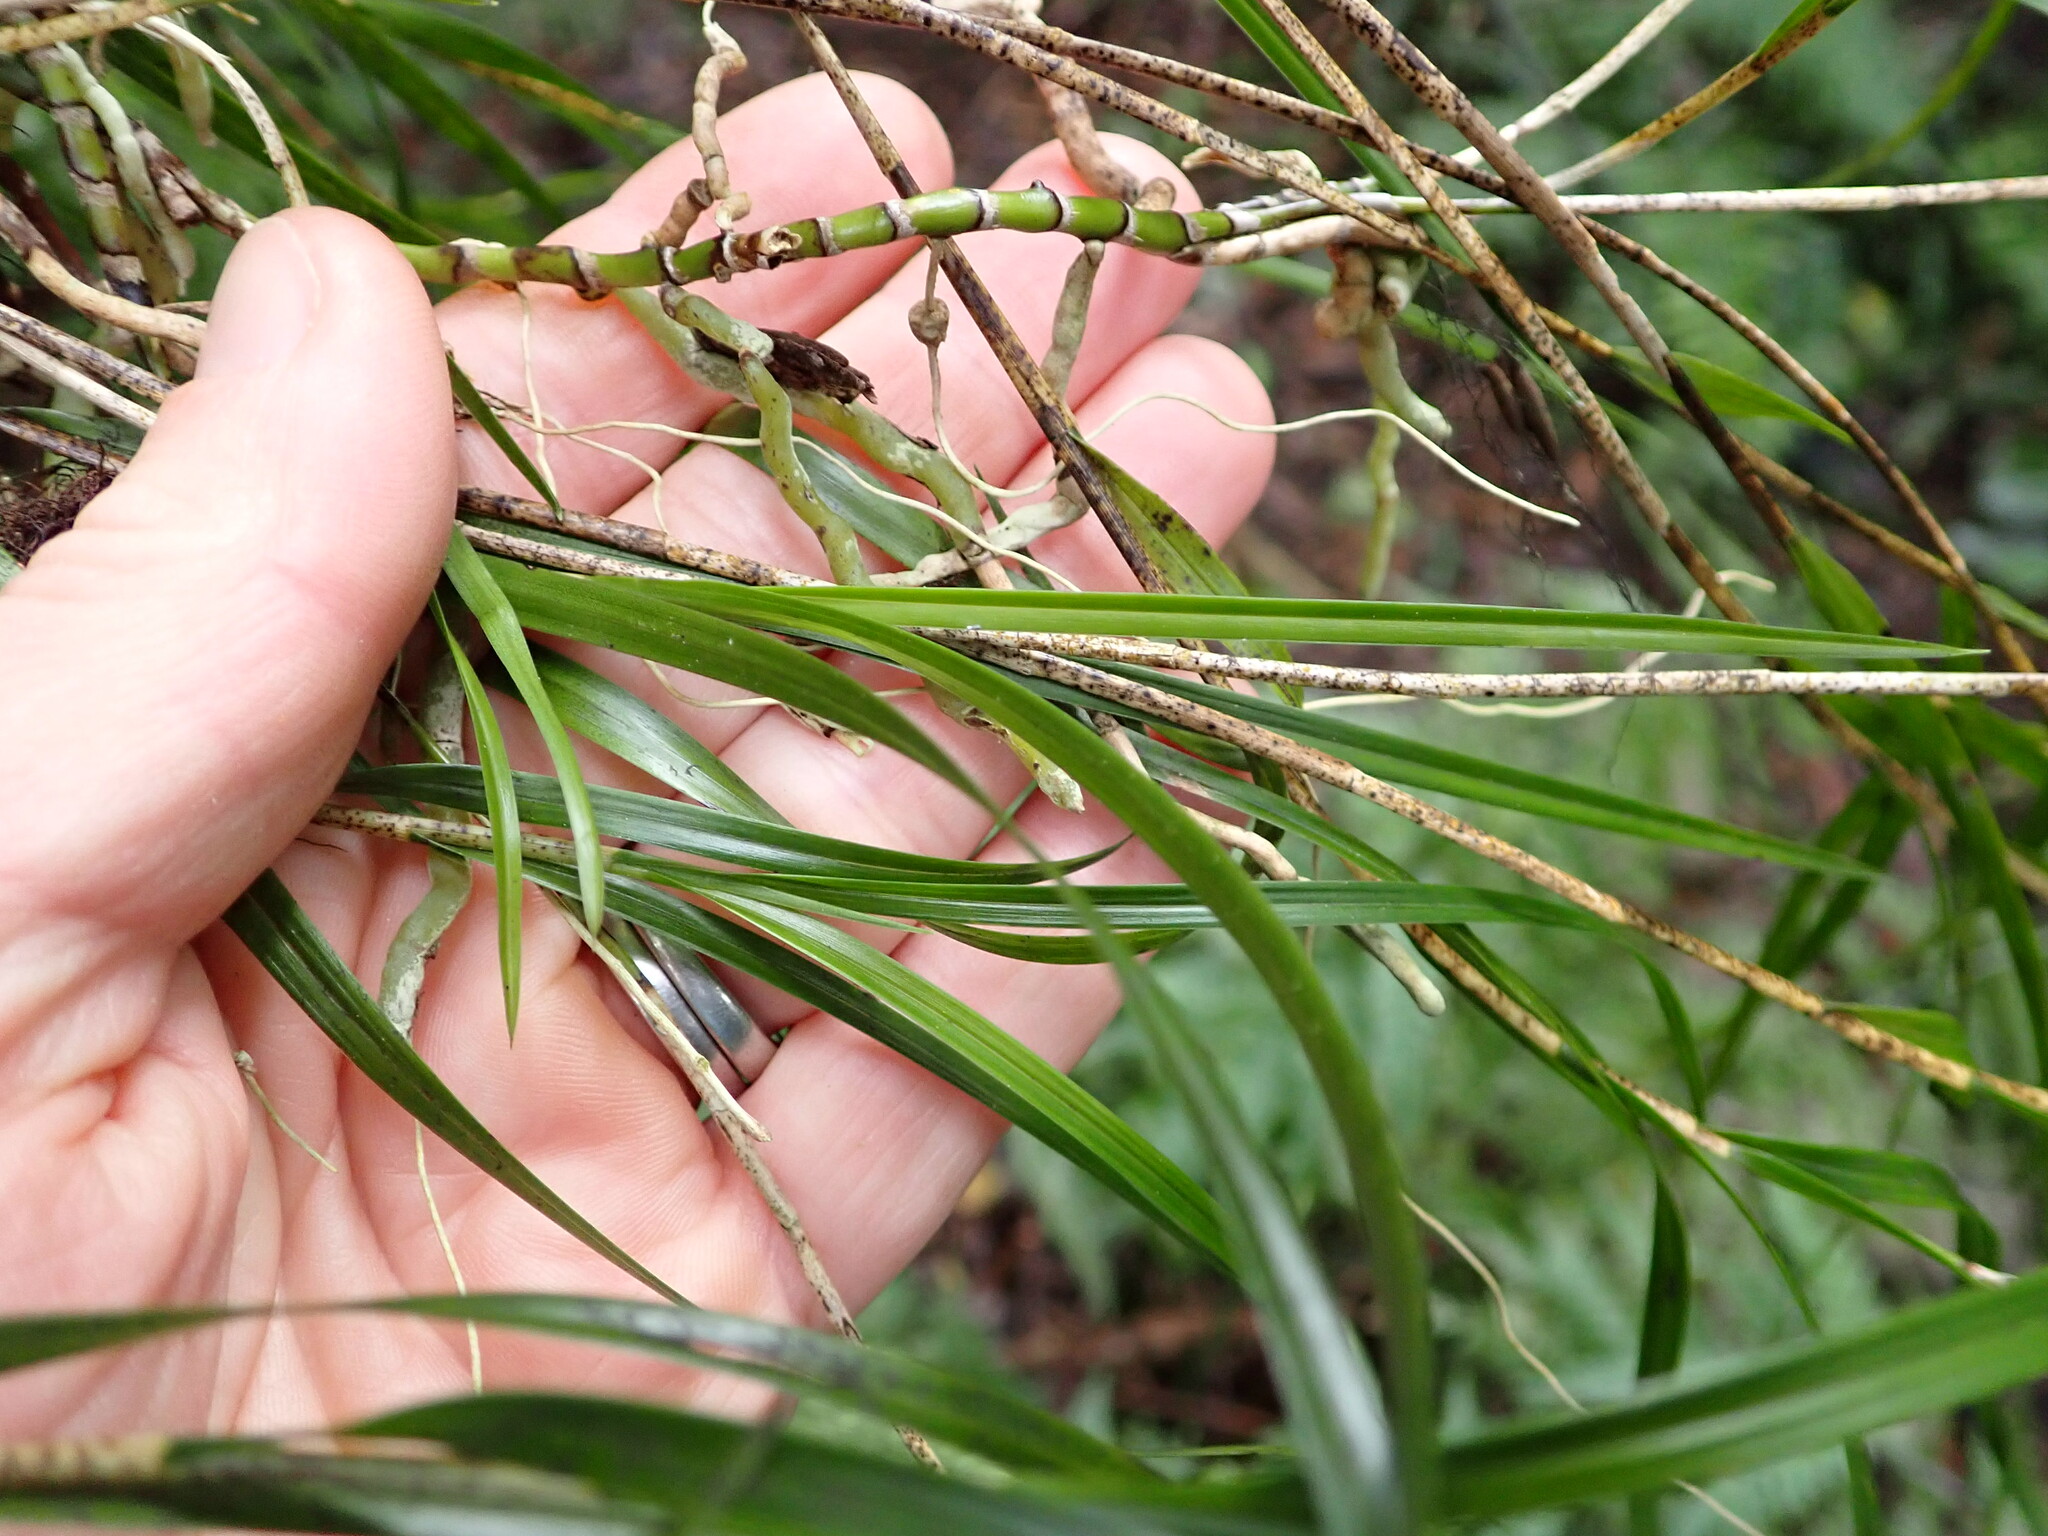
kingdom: Plantae
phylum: Tracheophyta
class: Liliopsida
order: Asparagales
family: Orchidaceae
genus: Earina
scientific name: Earina mucronata
